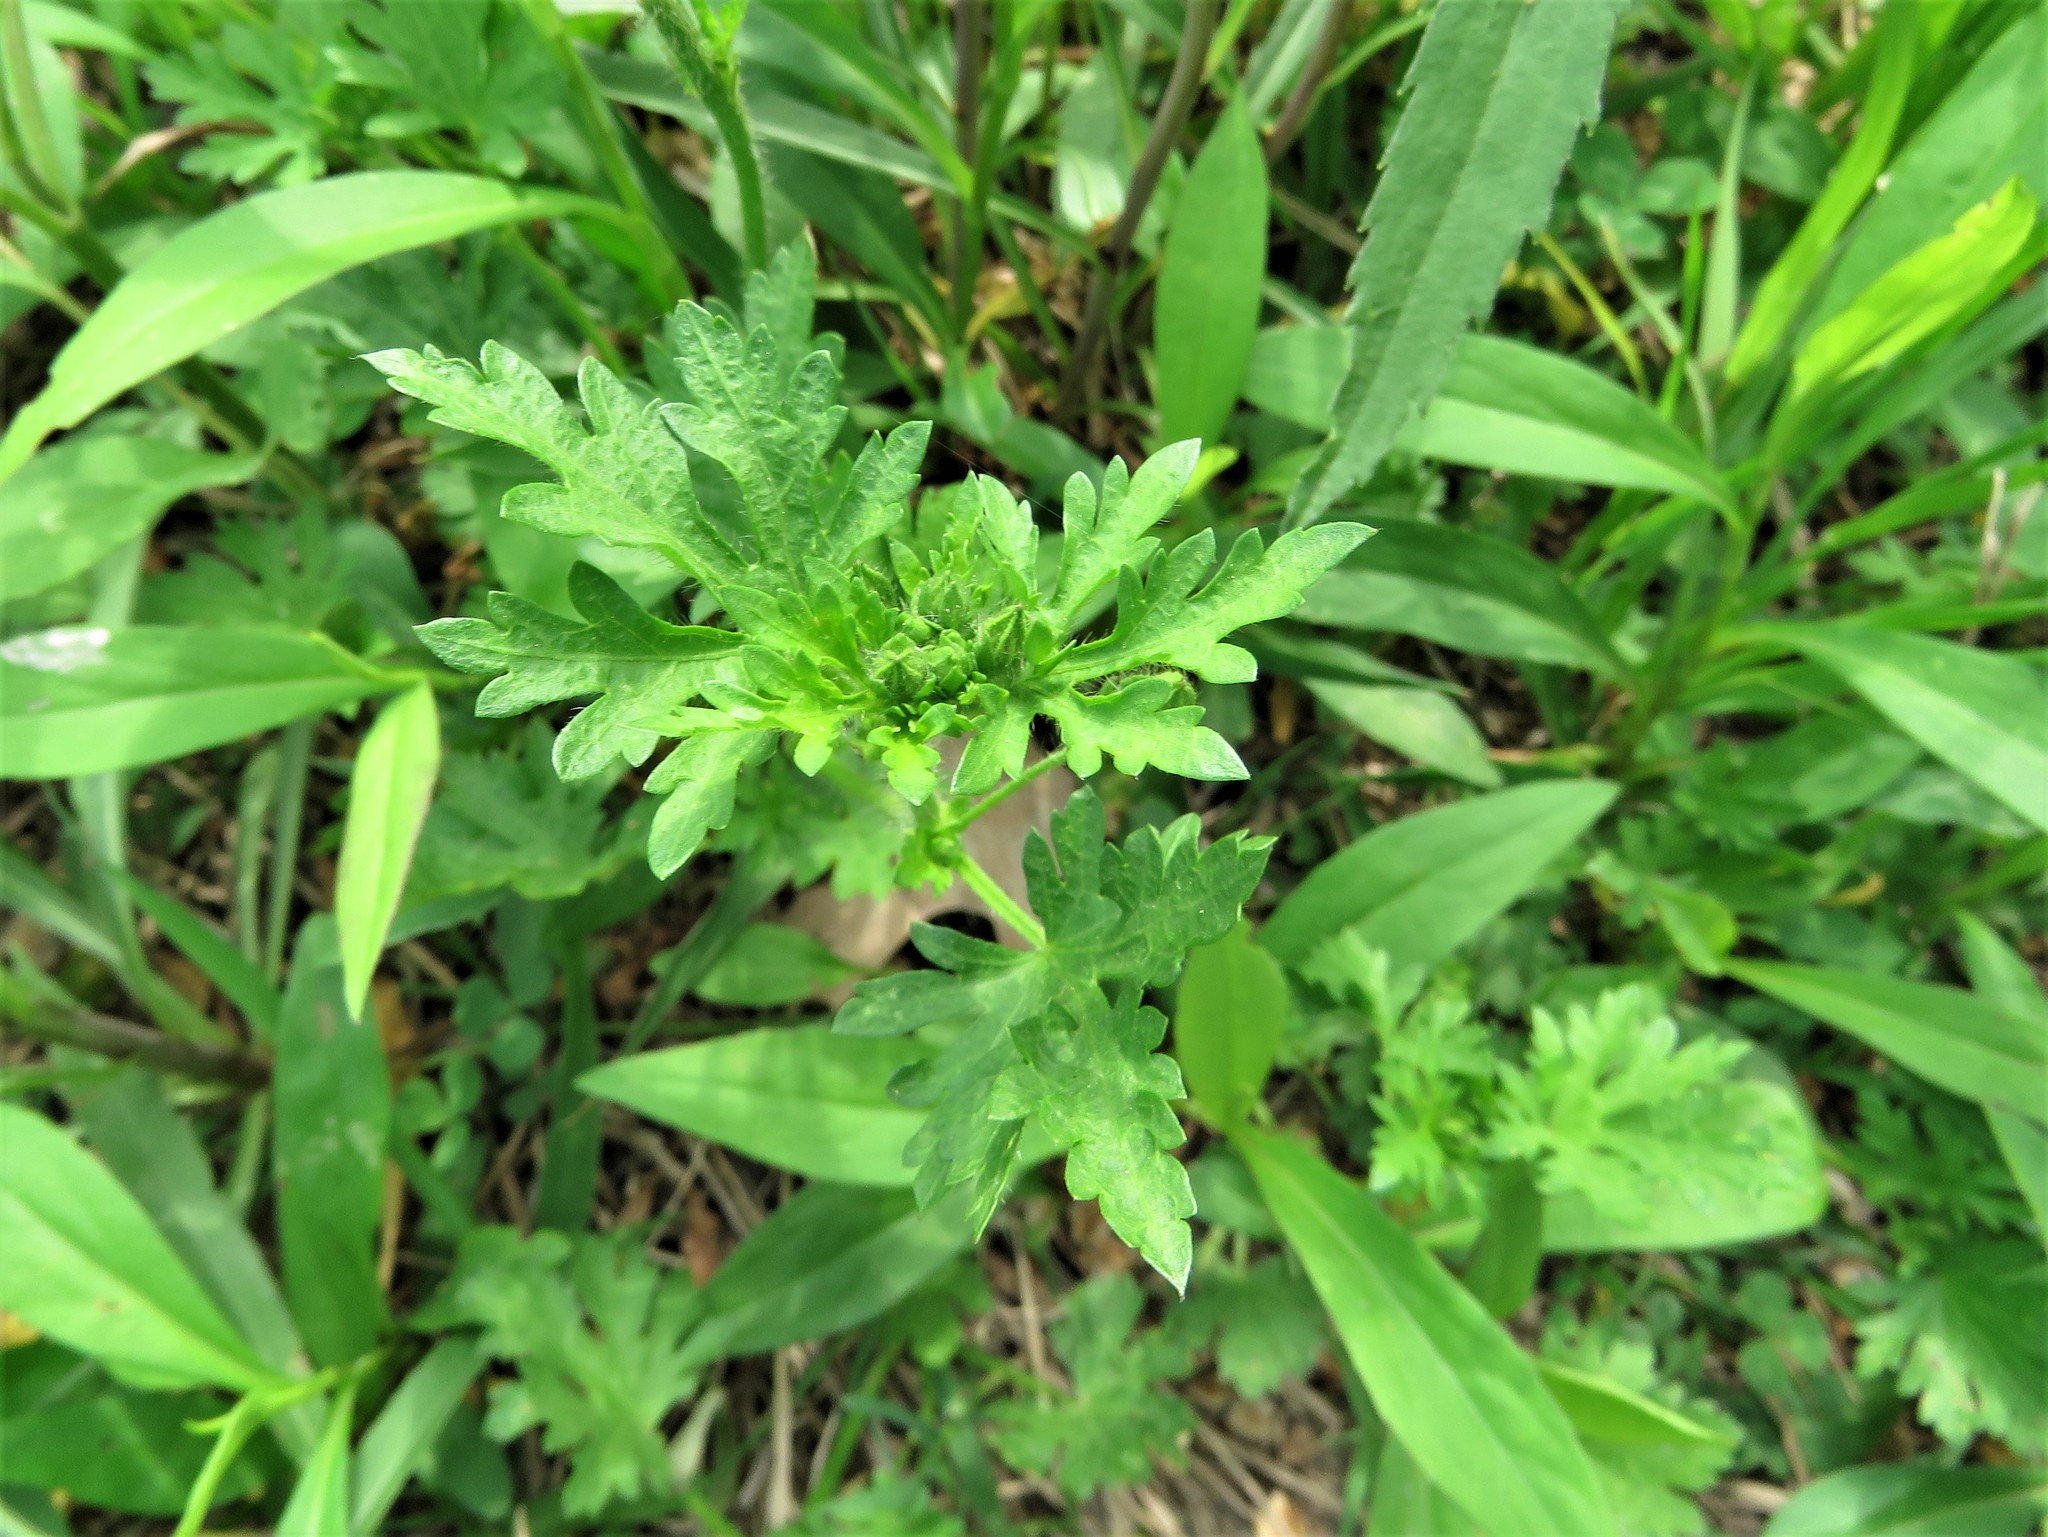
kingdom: Plantae
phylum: Tracheophyta
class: Magnoliopsida
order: Malvales
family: Malvaceae
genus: Modiola
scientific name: Modiola caroliniana
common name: Carolina bristlemallow
